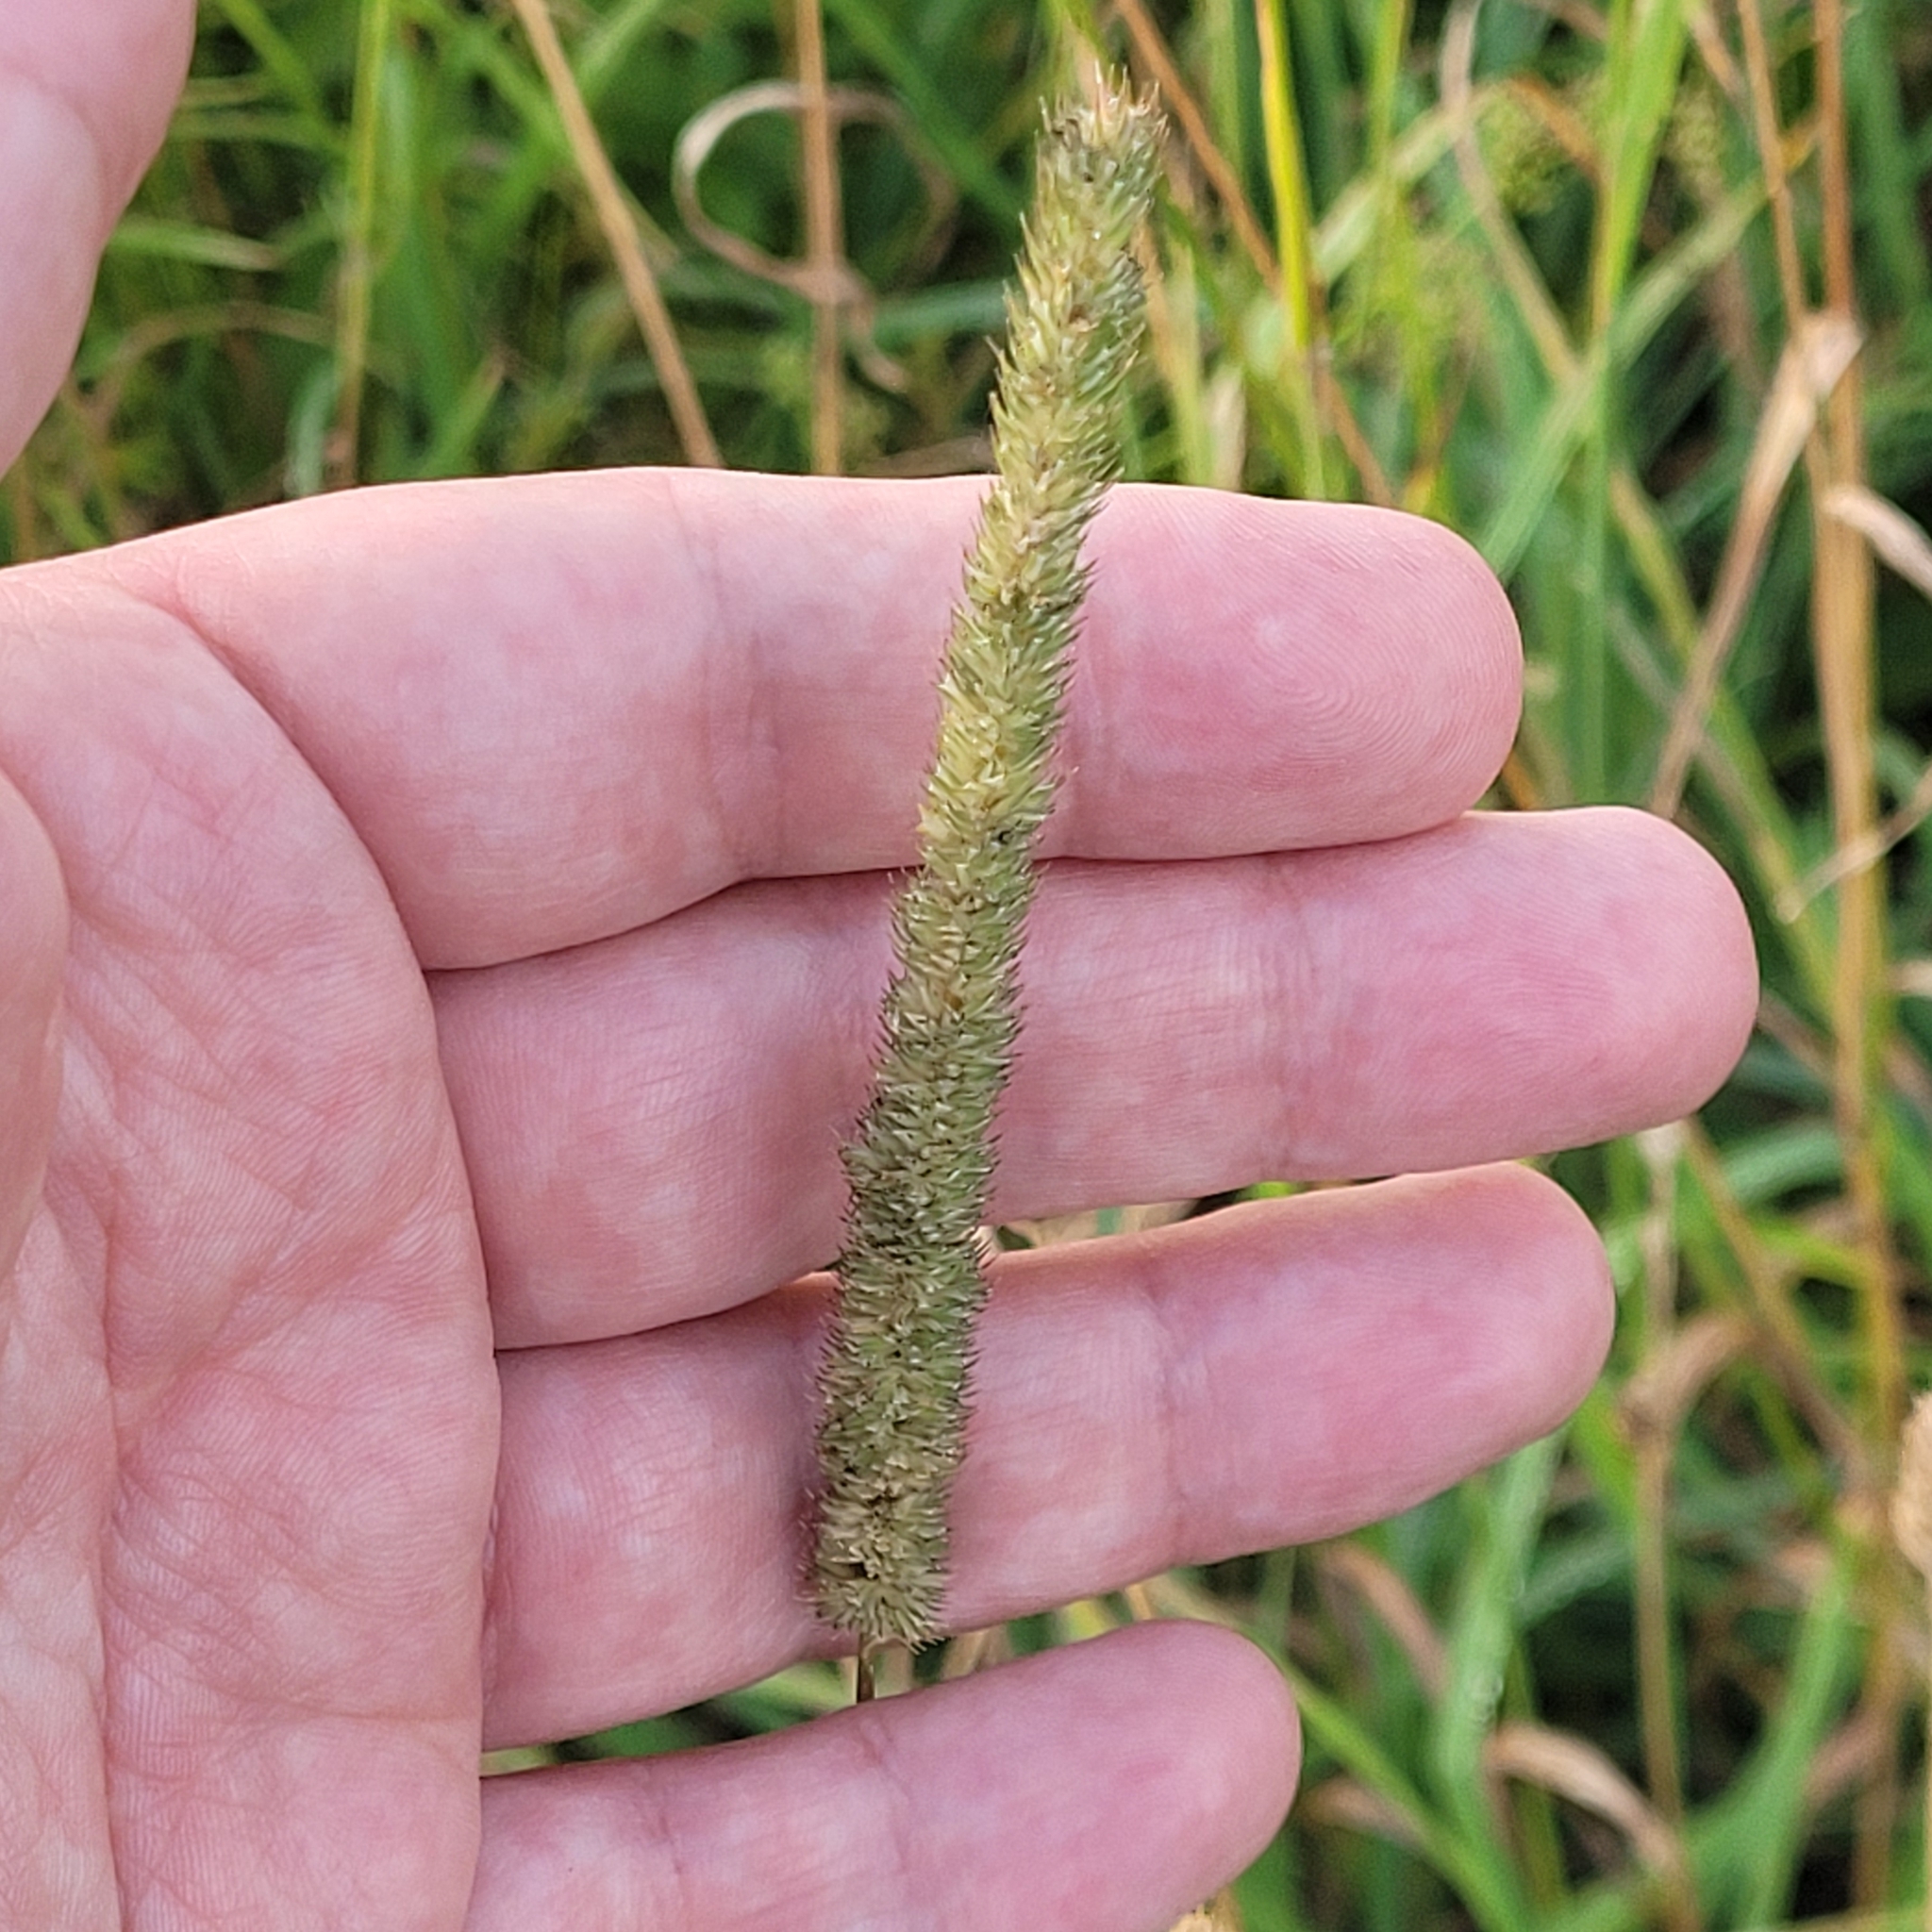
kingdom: Plantae
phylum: Tracheophyta
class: Liliopsida
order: Poales
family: Poaceae
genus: Phleum
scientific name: Phleum pratense
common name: Timothy grass
